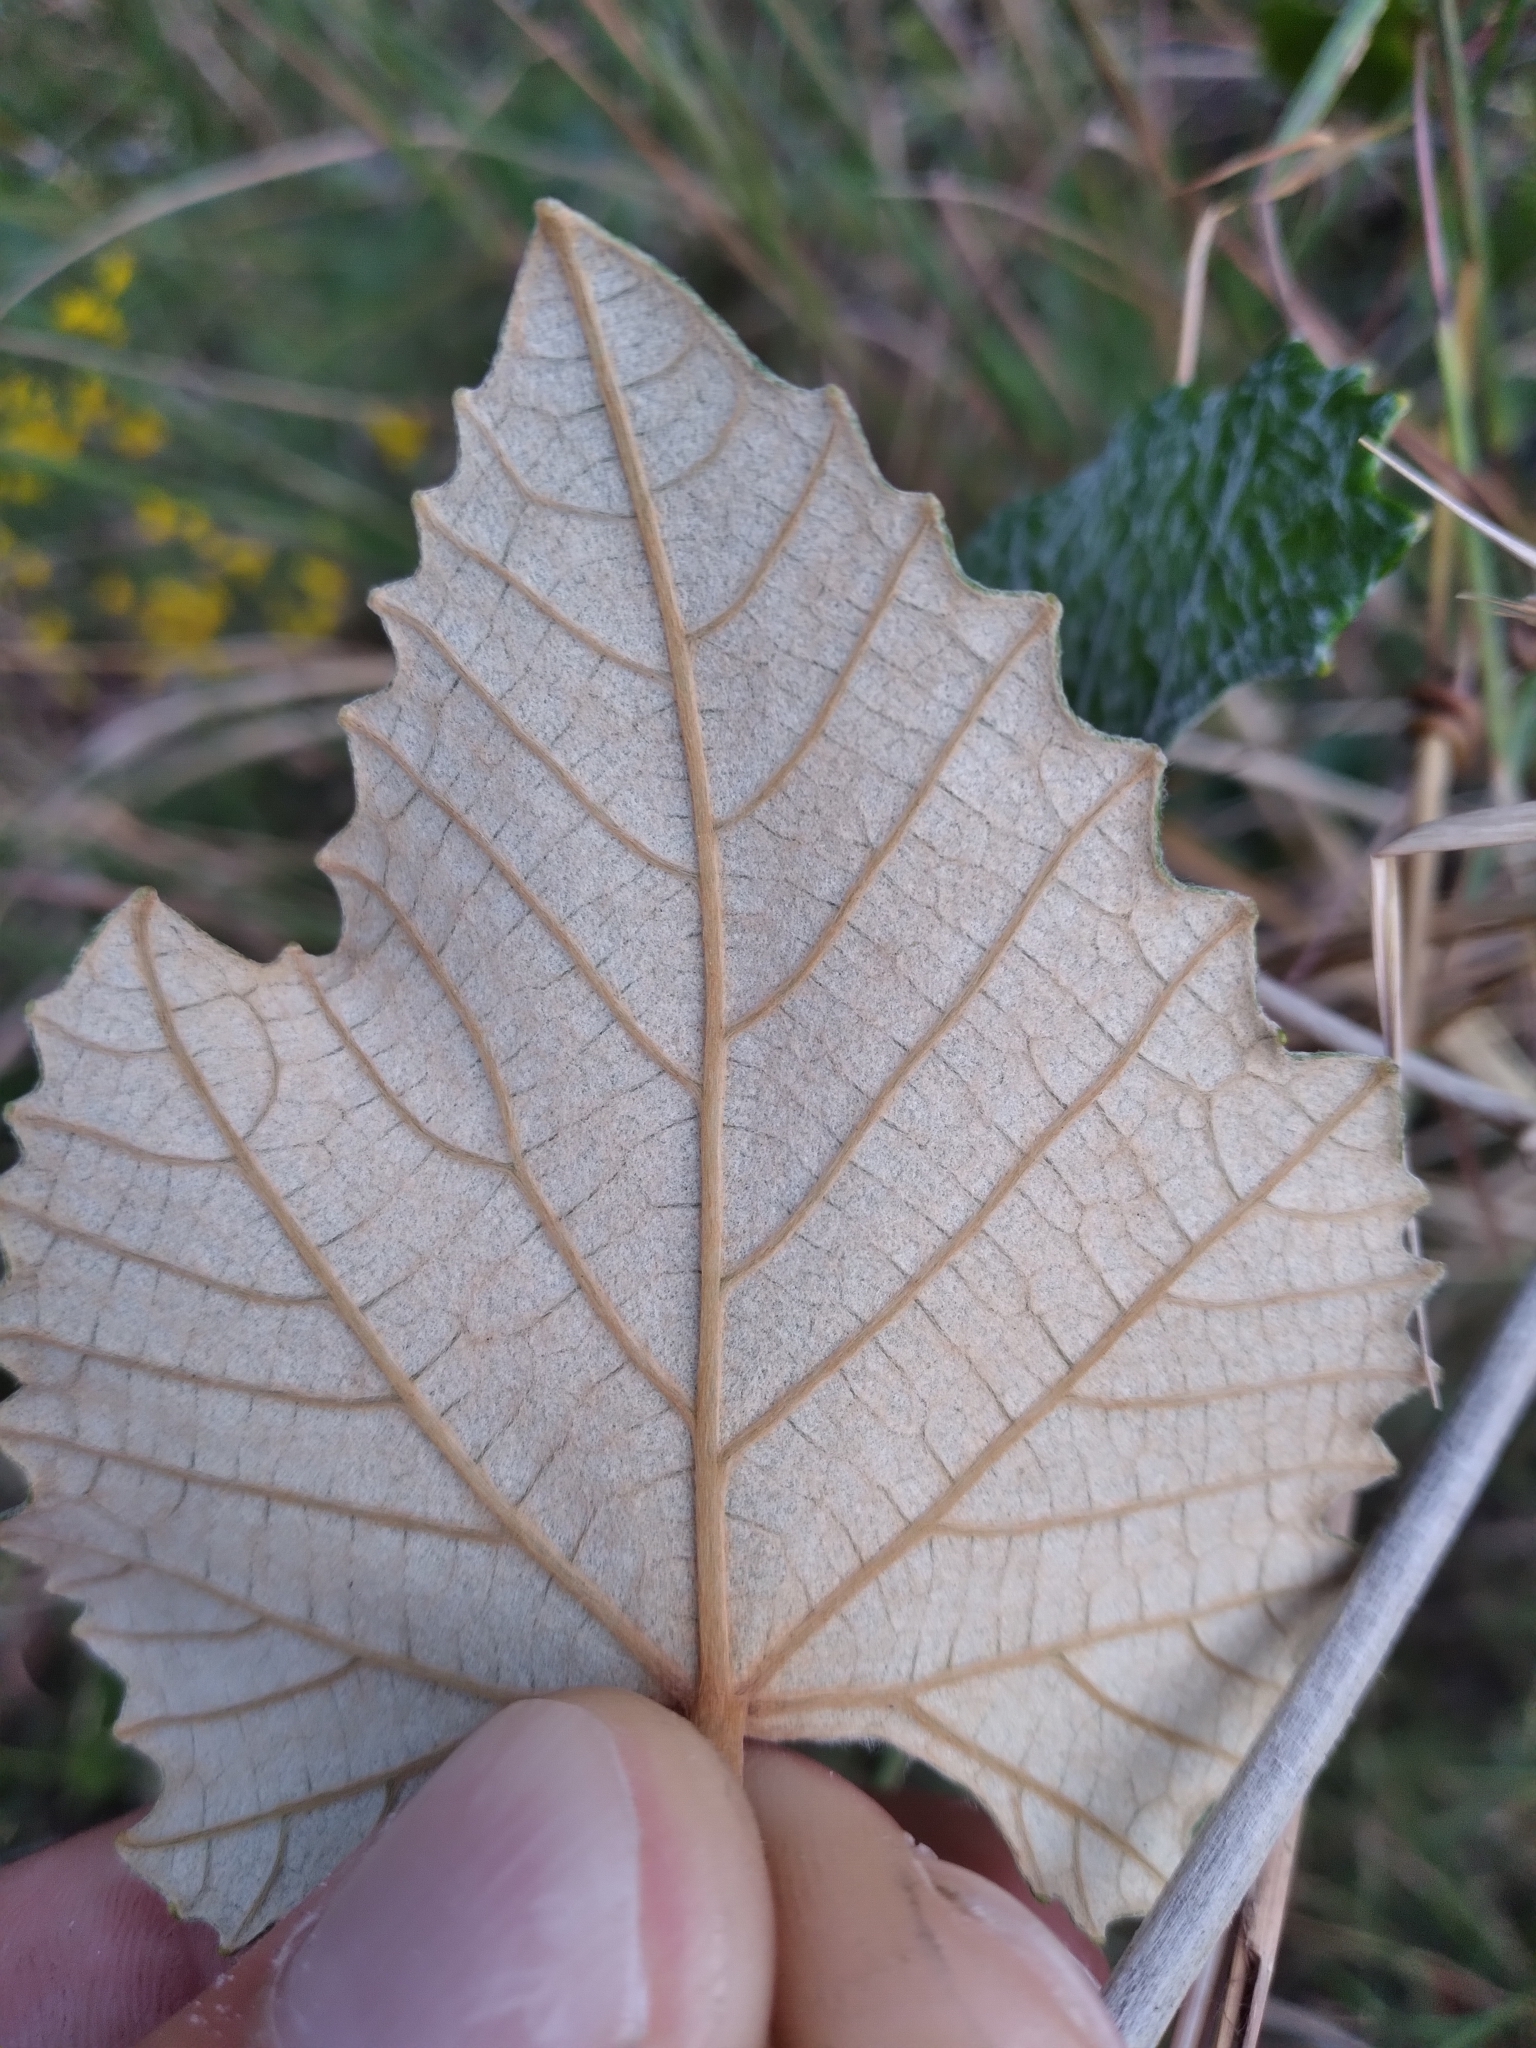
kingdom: Plantae
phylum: Tracheophyta
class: Magnoliopsida
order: Vitales
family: Vitaceae
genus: Vitis
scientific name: Vitis shuttleworthii
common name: Caloosa grape
